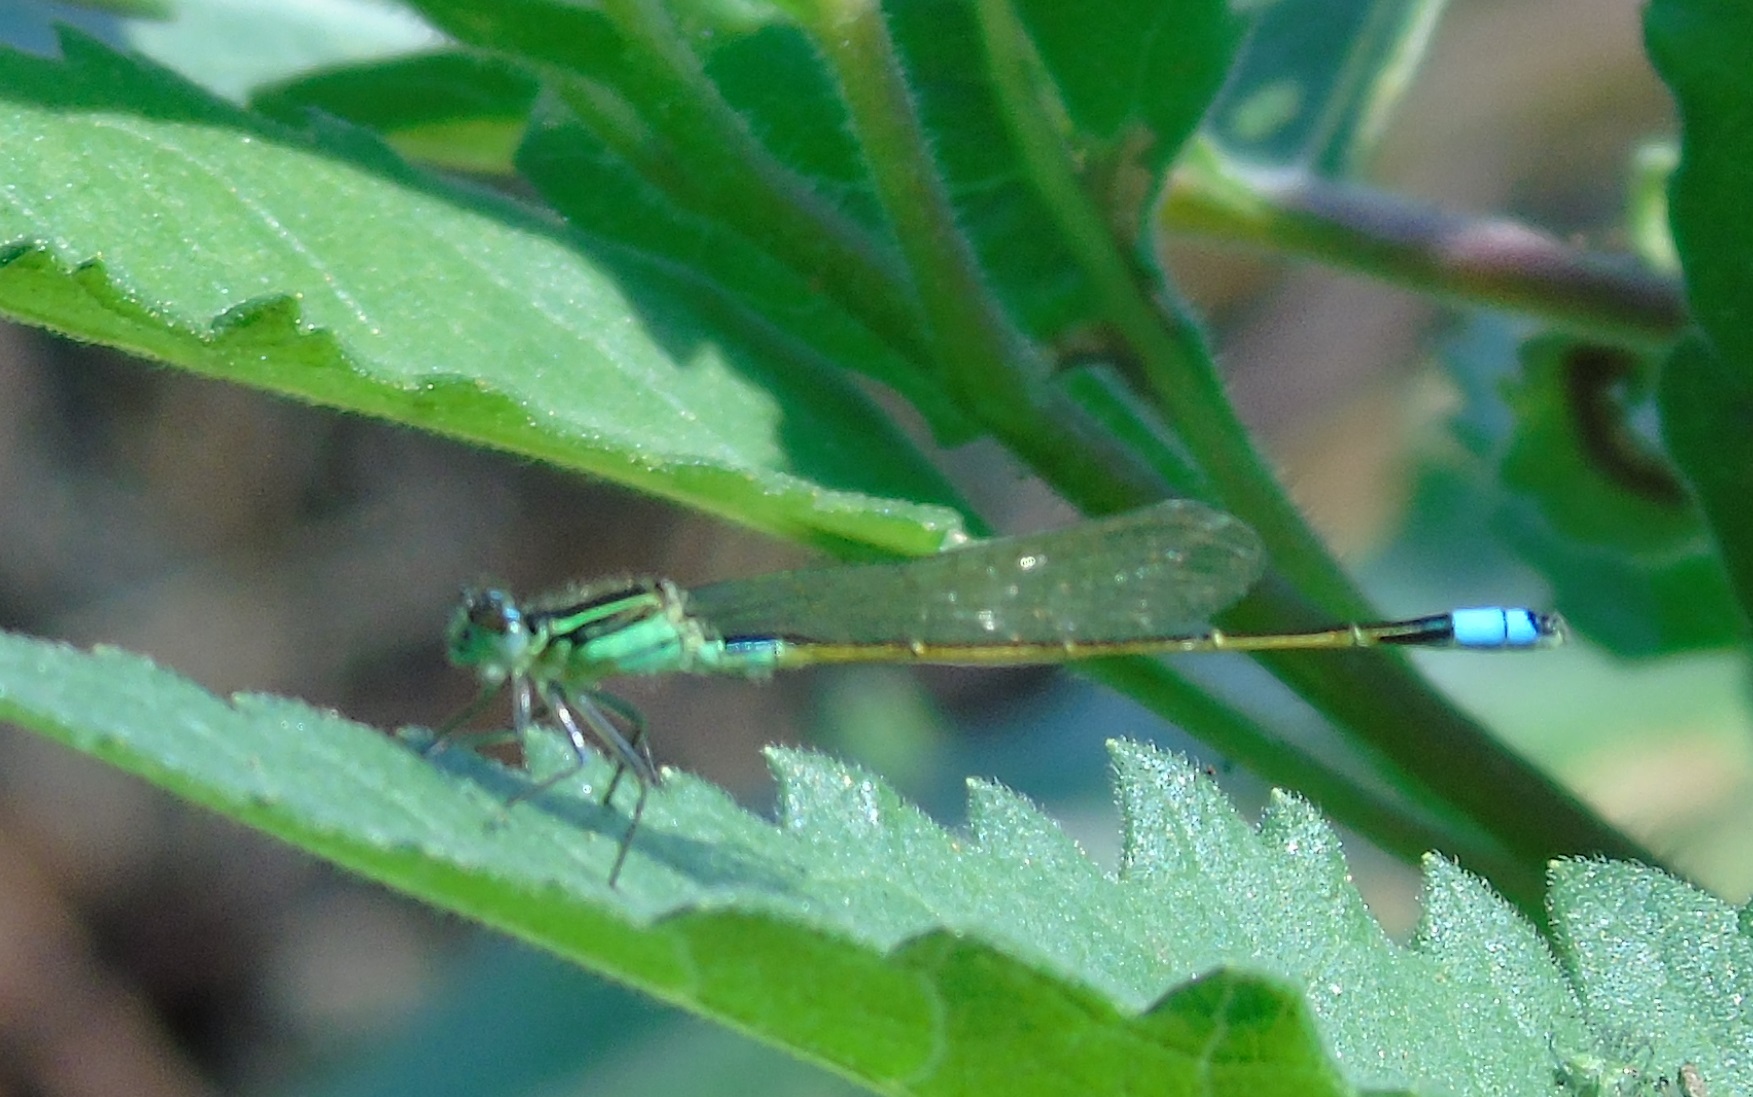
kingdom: Animalia
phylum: Arthropoda
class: Insecta
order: Odonata
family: Coenagrionidae
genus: Ischnura
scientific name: Ischnura ramburii
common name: Rambur's forktail
